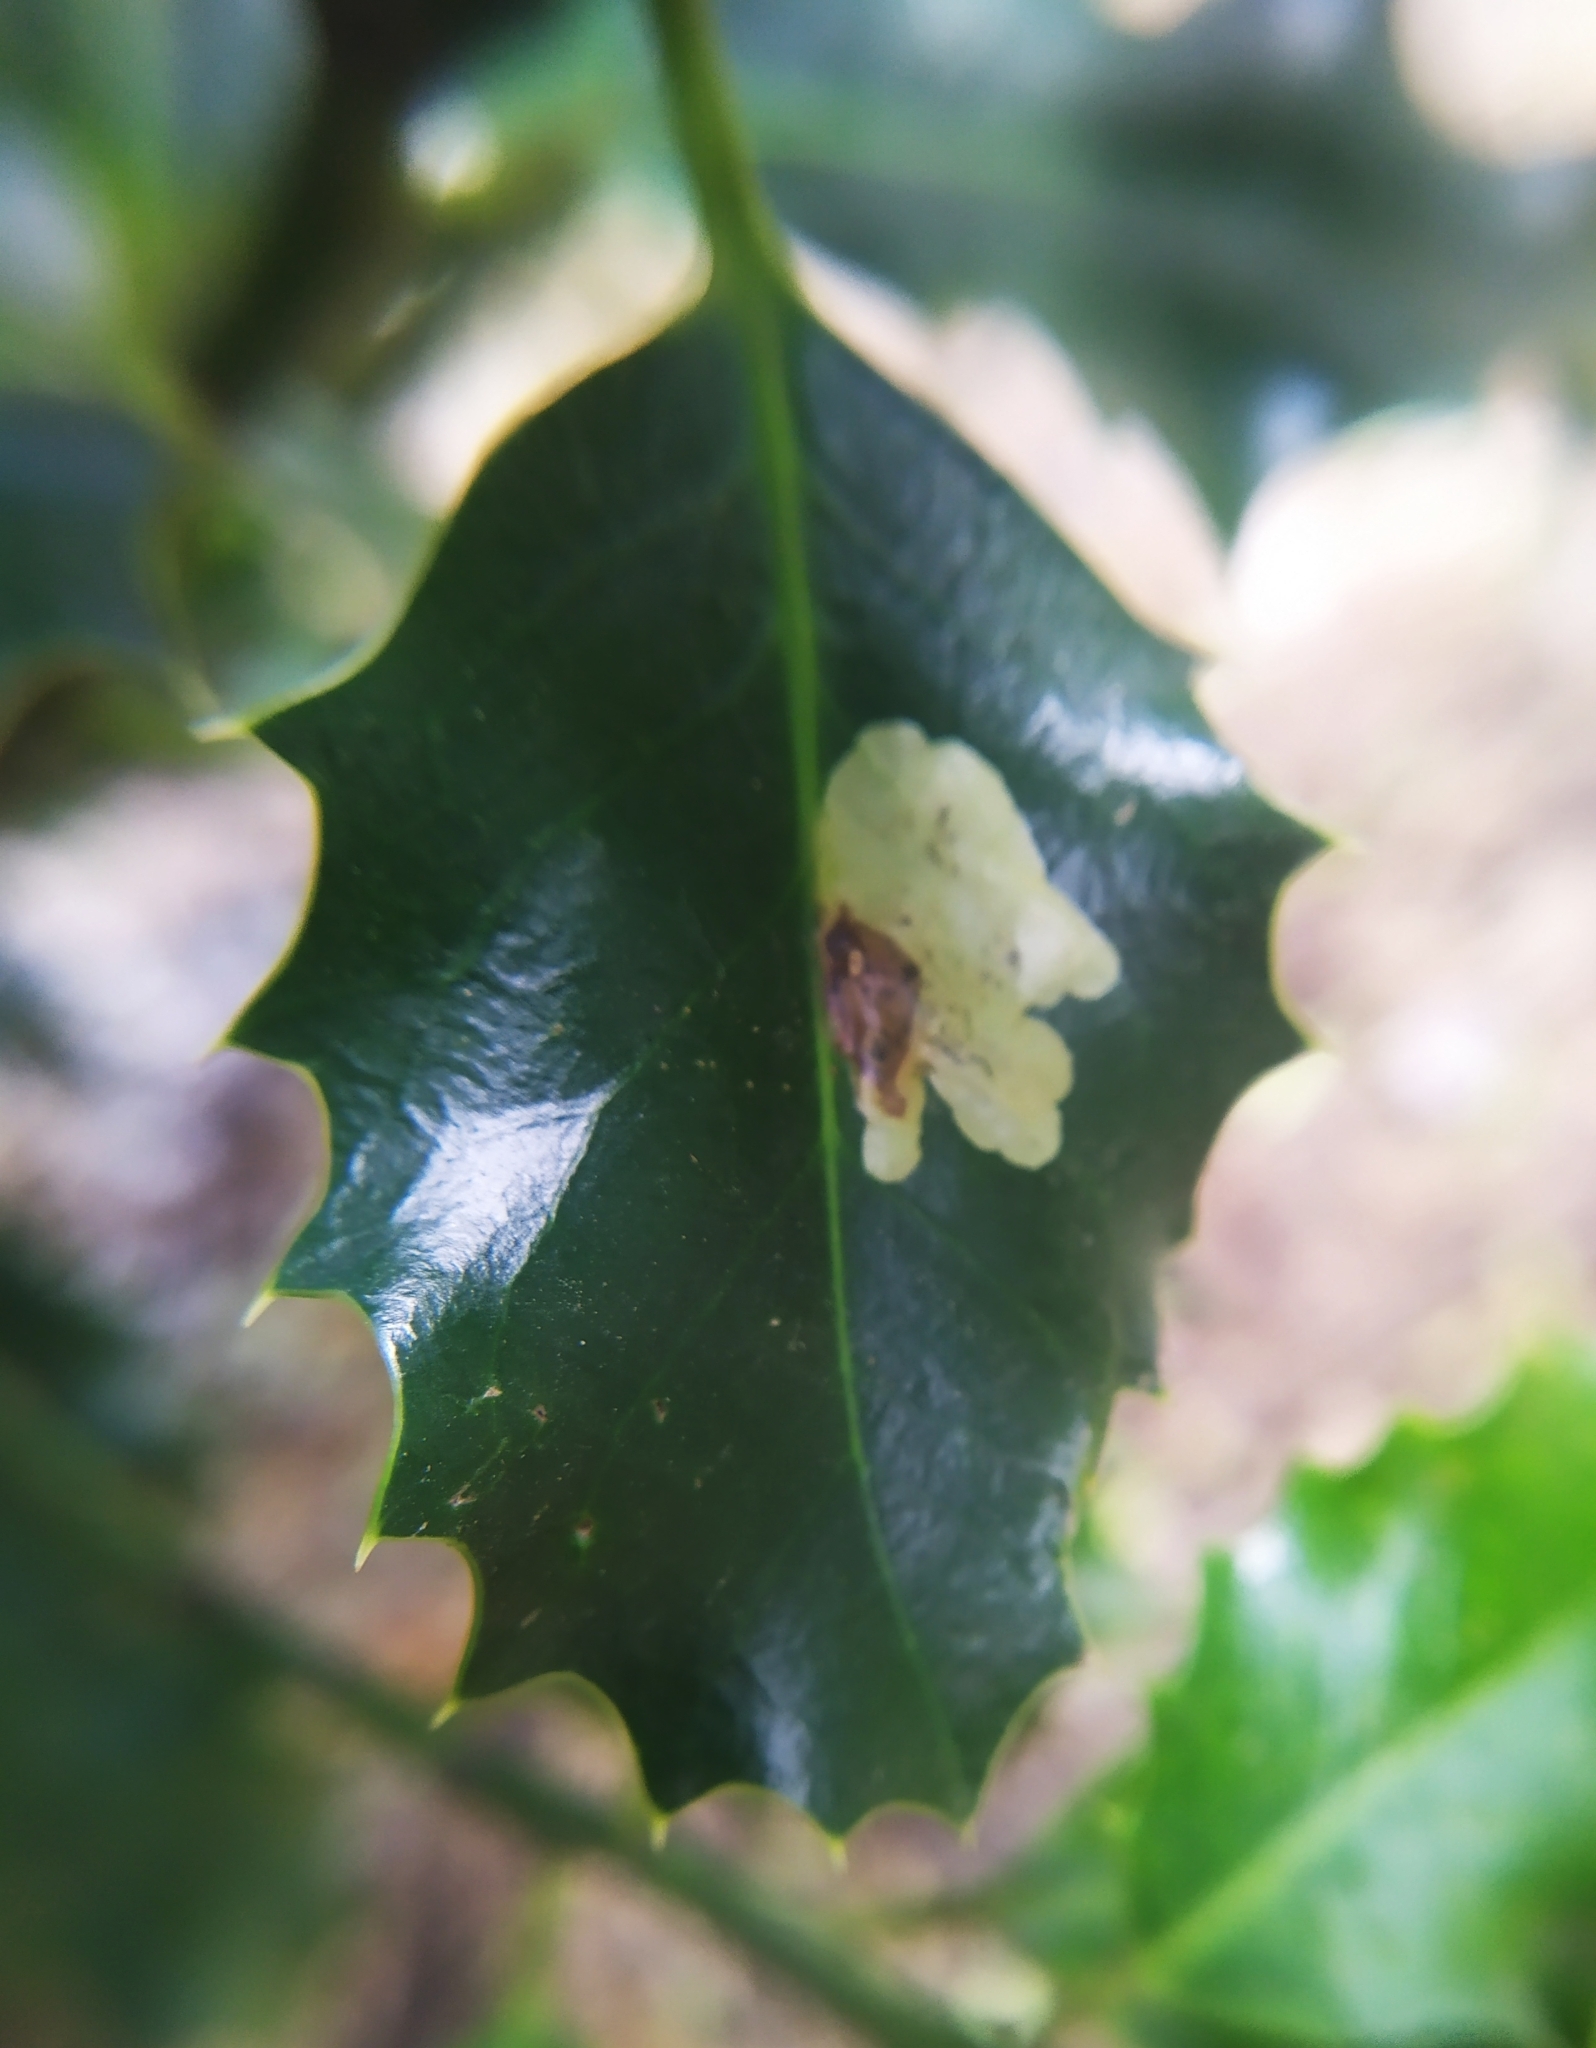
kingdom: Animalia
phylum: Arthropoda
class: Insecta
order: Diptera
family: Agromyzidae
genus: Phytomyza
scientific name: Phytomyza ilicis
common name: Holly leafminer
